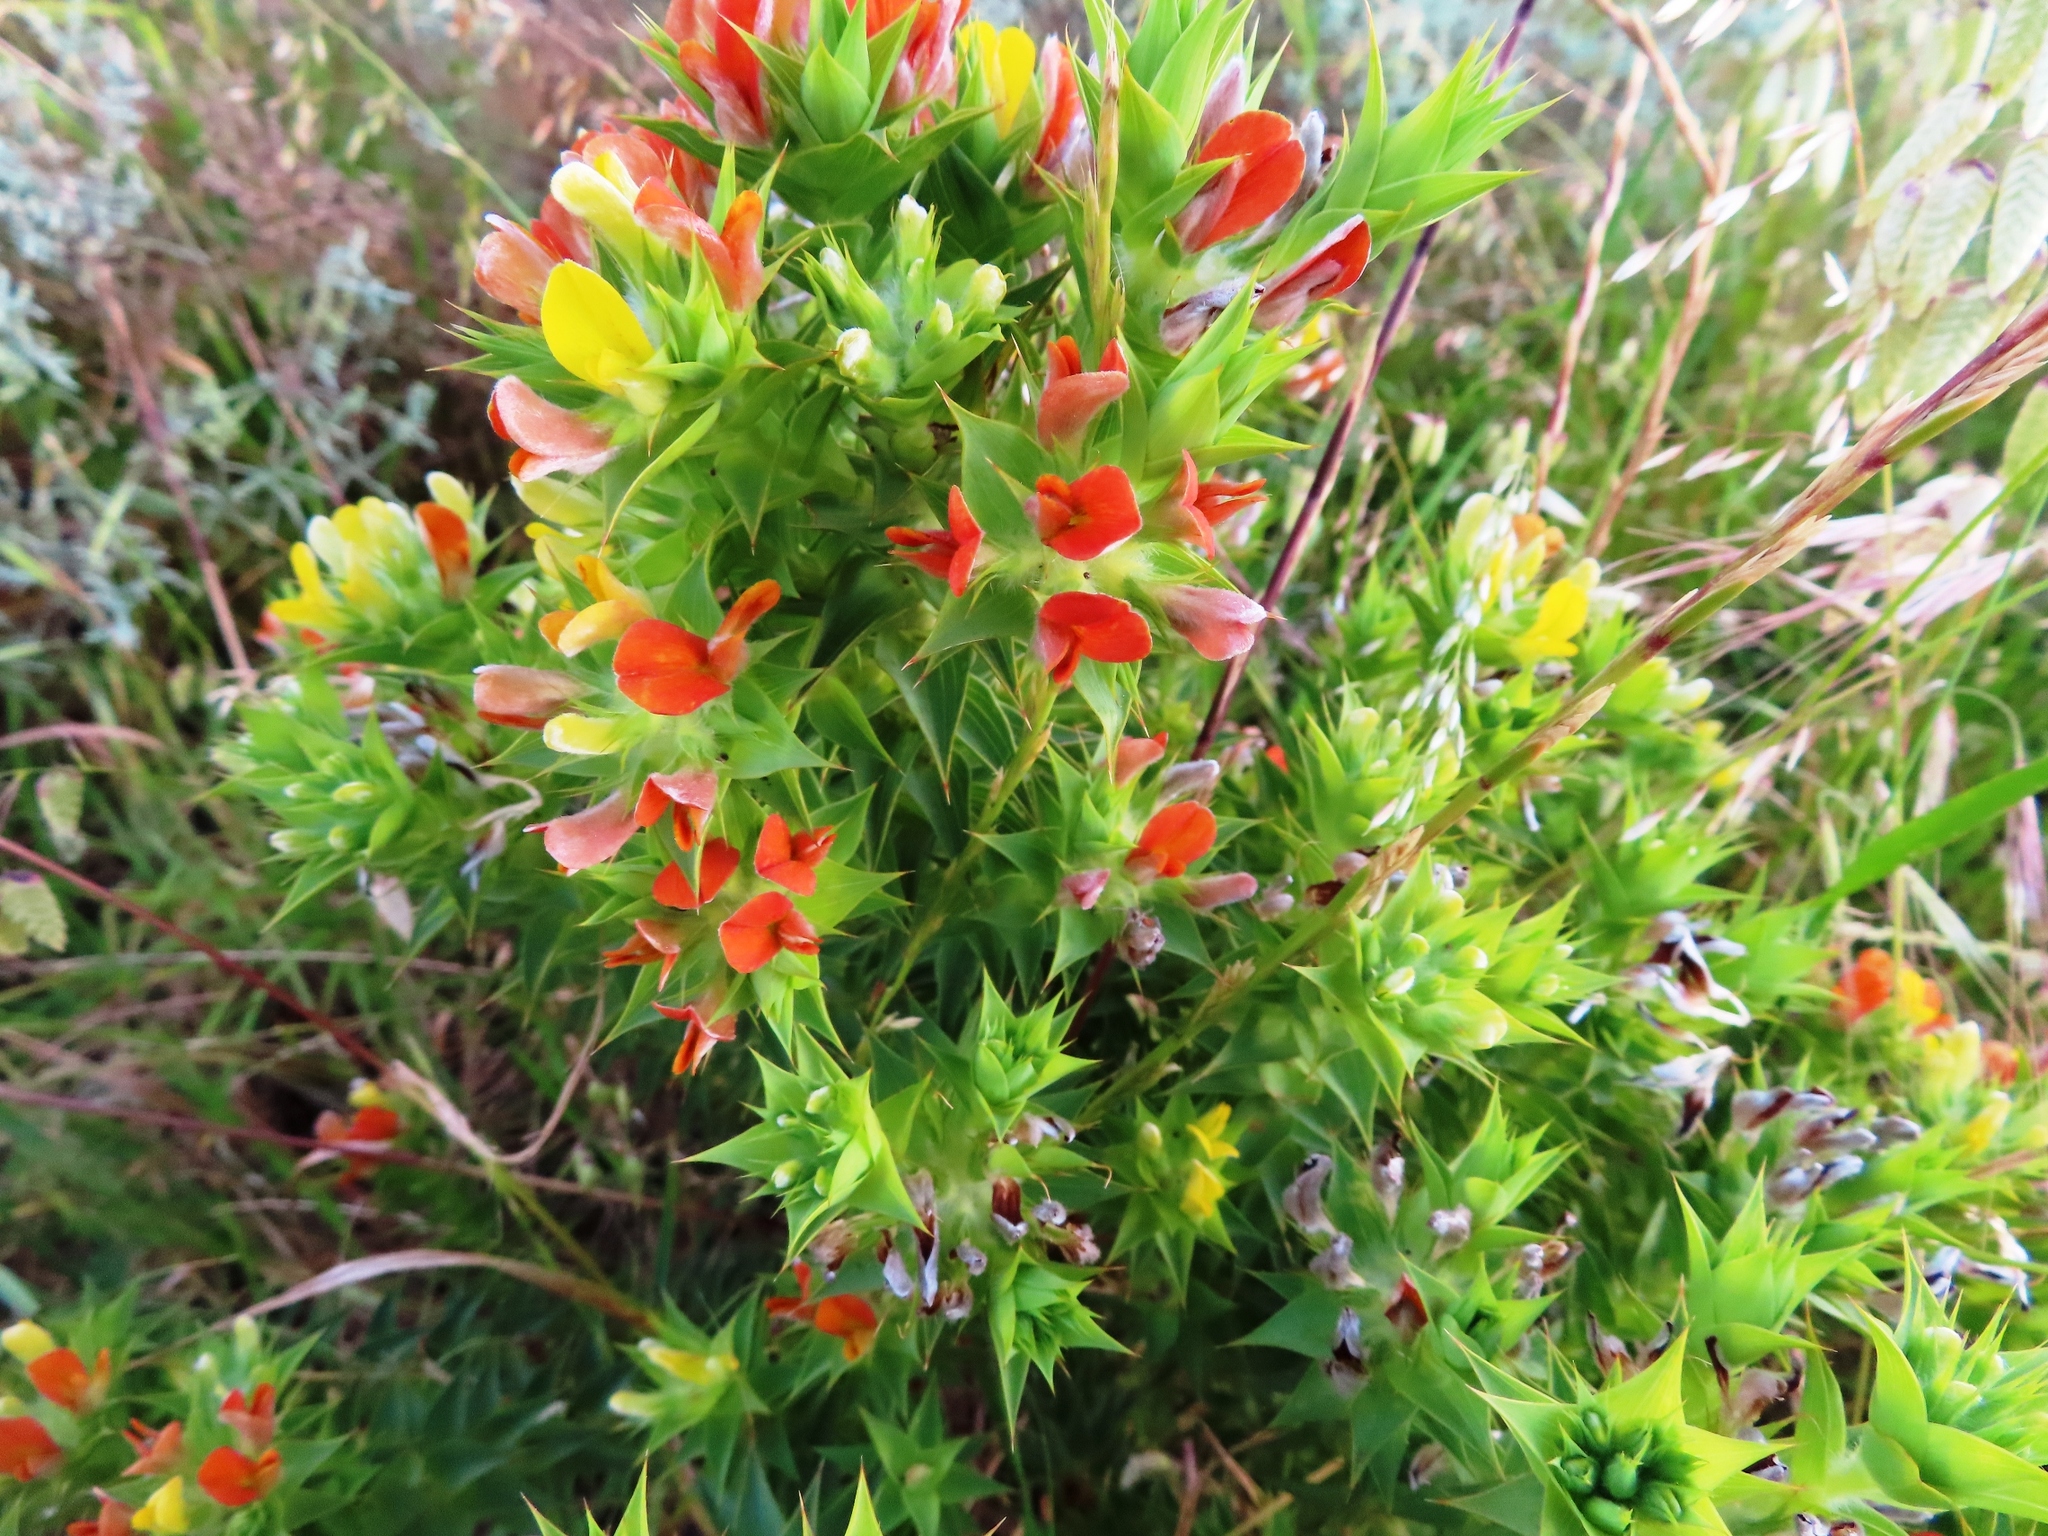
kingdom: Plantae
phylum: Tracheophyta
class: Magnoliopsida
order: Fabales
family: Fabaceae
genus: Aspalathus
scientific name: Aspalathus cordata
